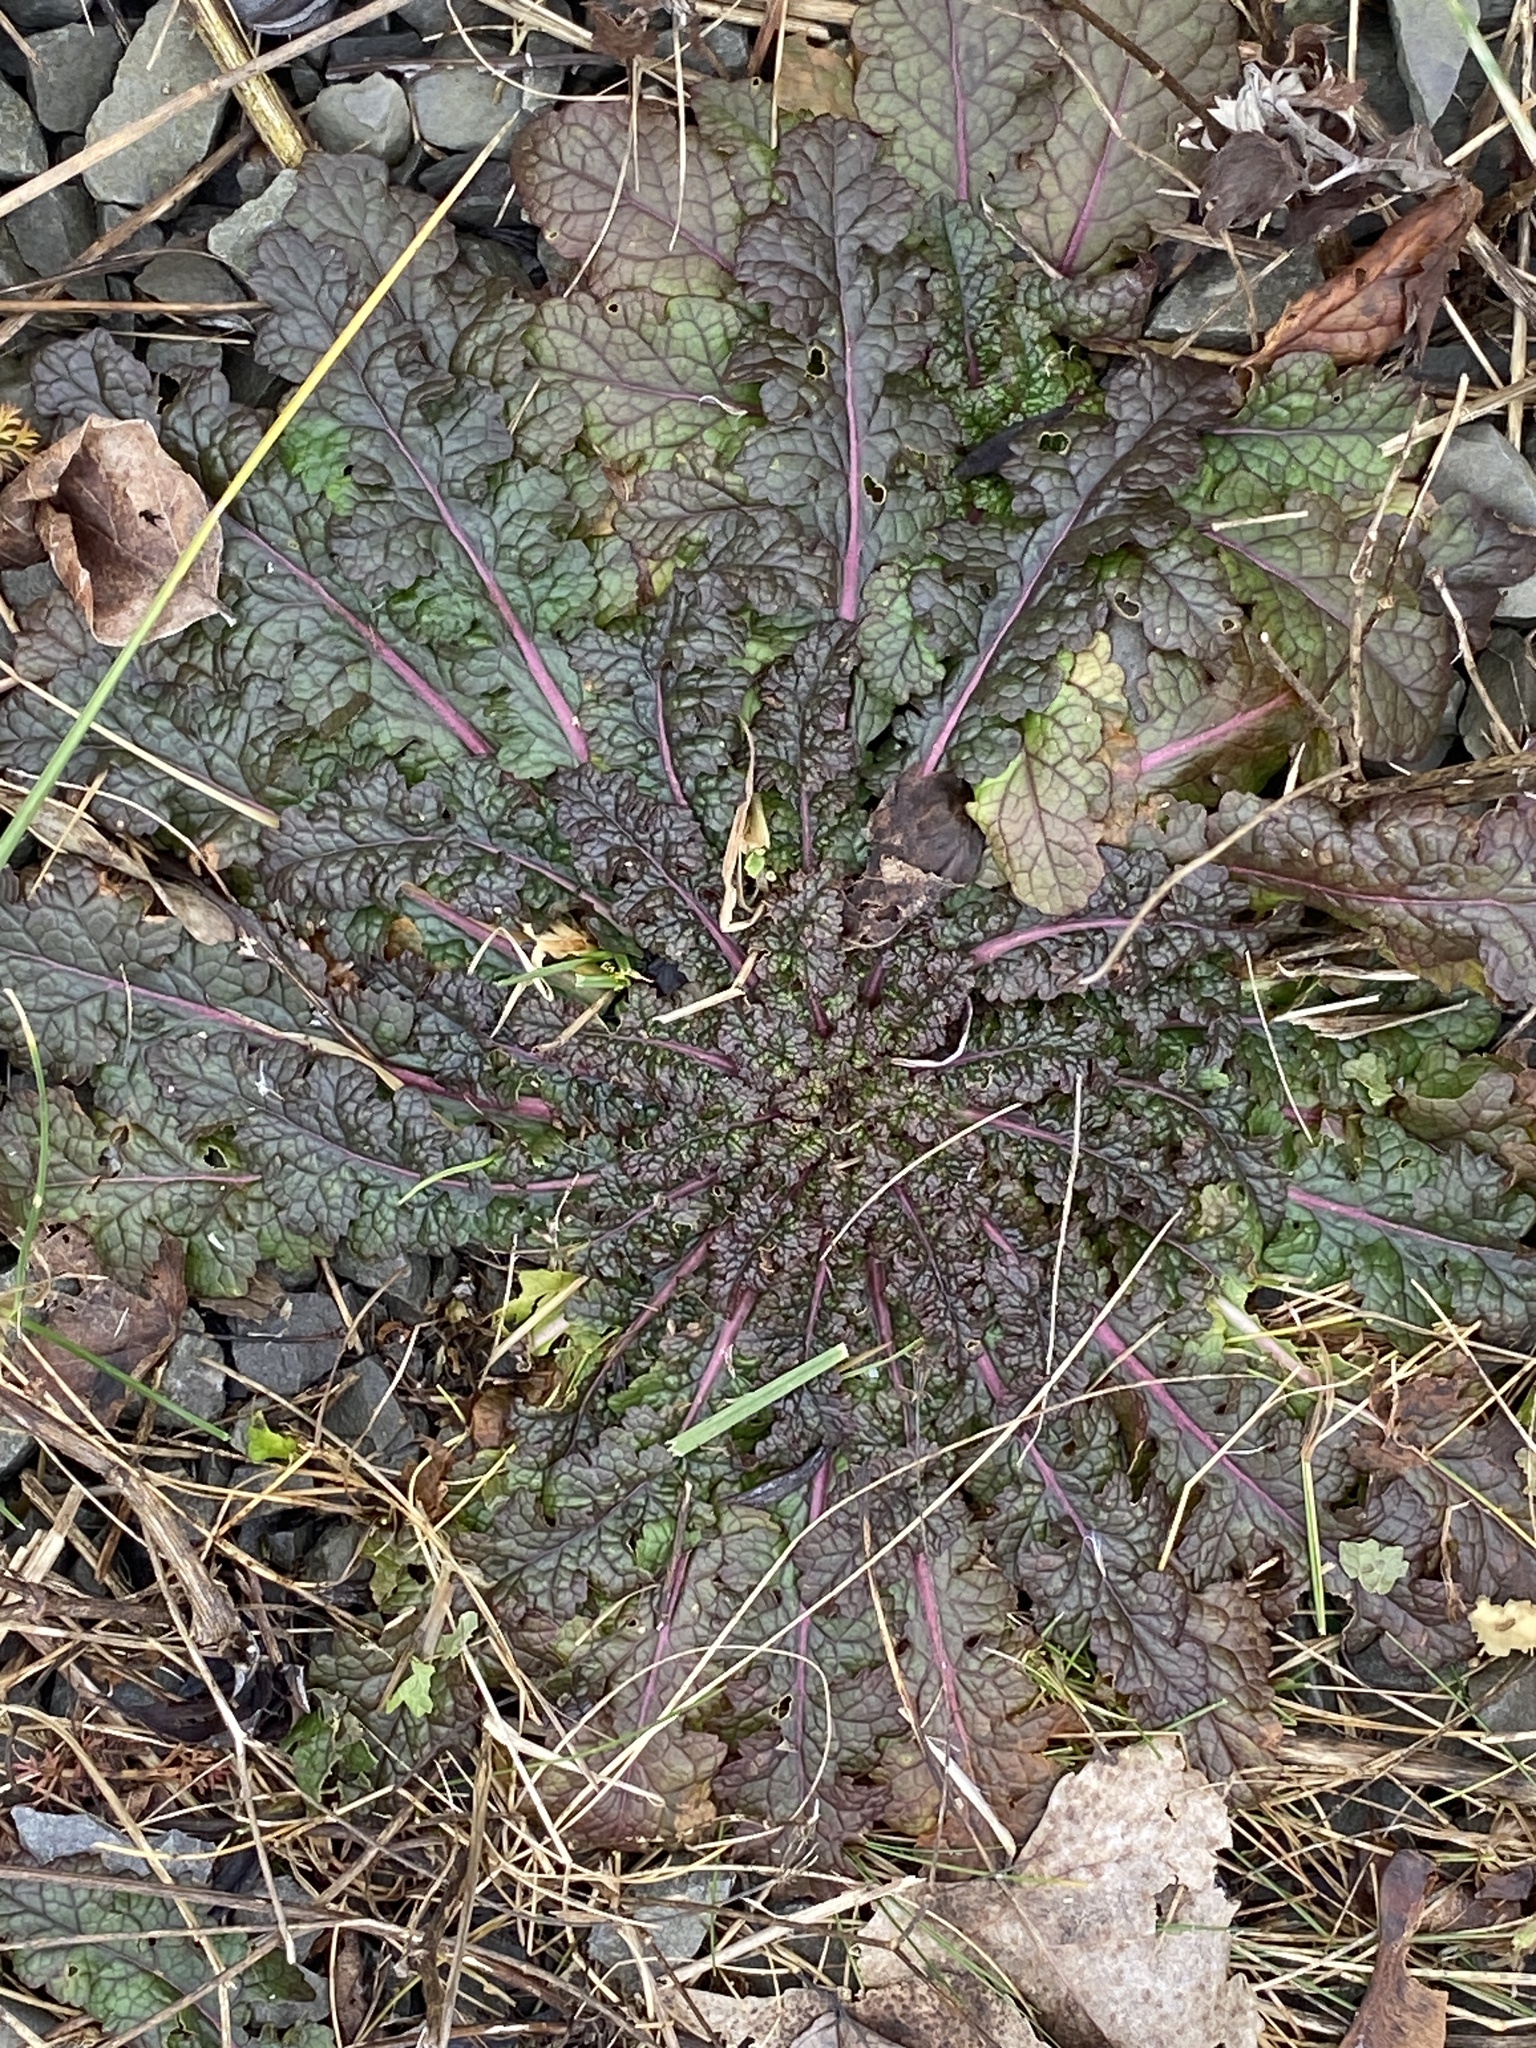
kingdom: Plantae
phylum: Tracheophyta
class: Magnoliopsida
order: Lamiales
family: Scrophulariaceae
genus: Verbascum
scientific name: Verbascum blattaria
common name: Moth mullein
